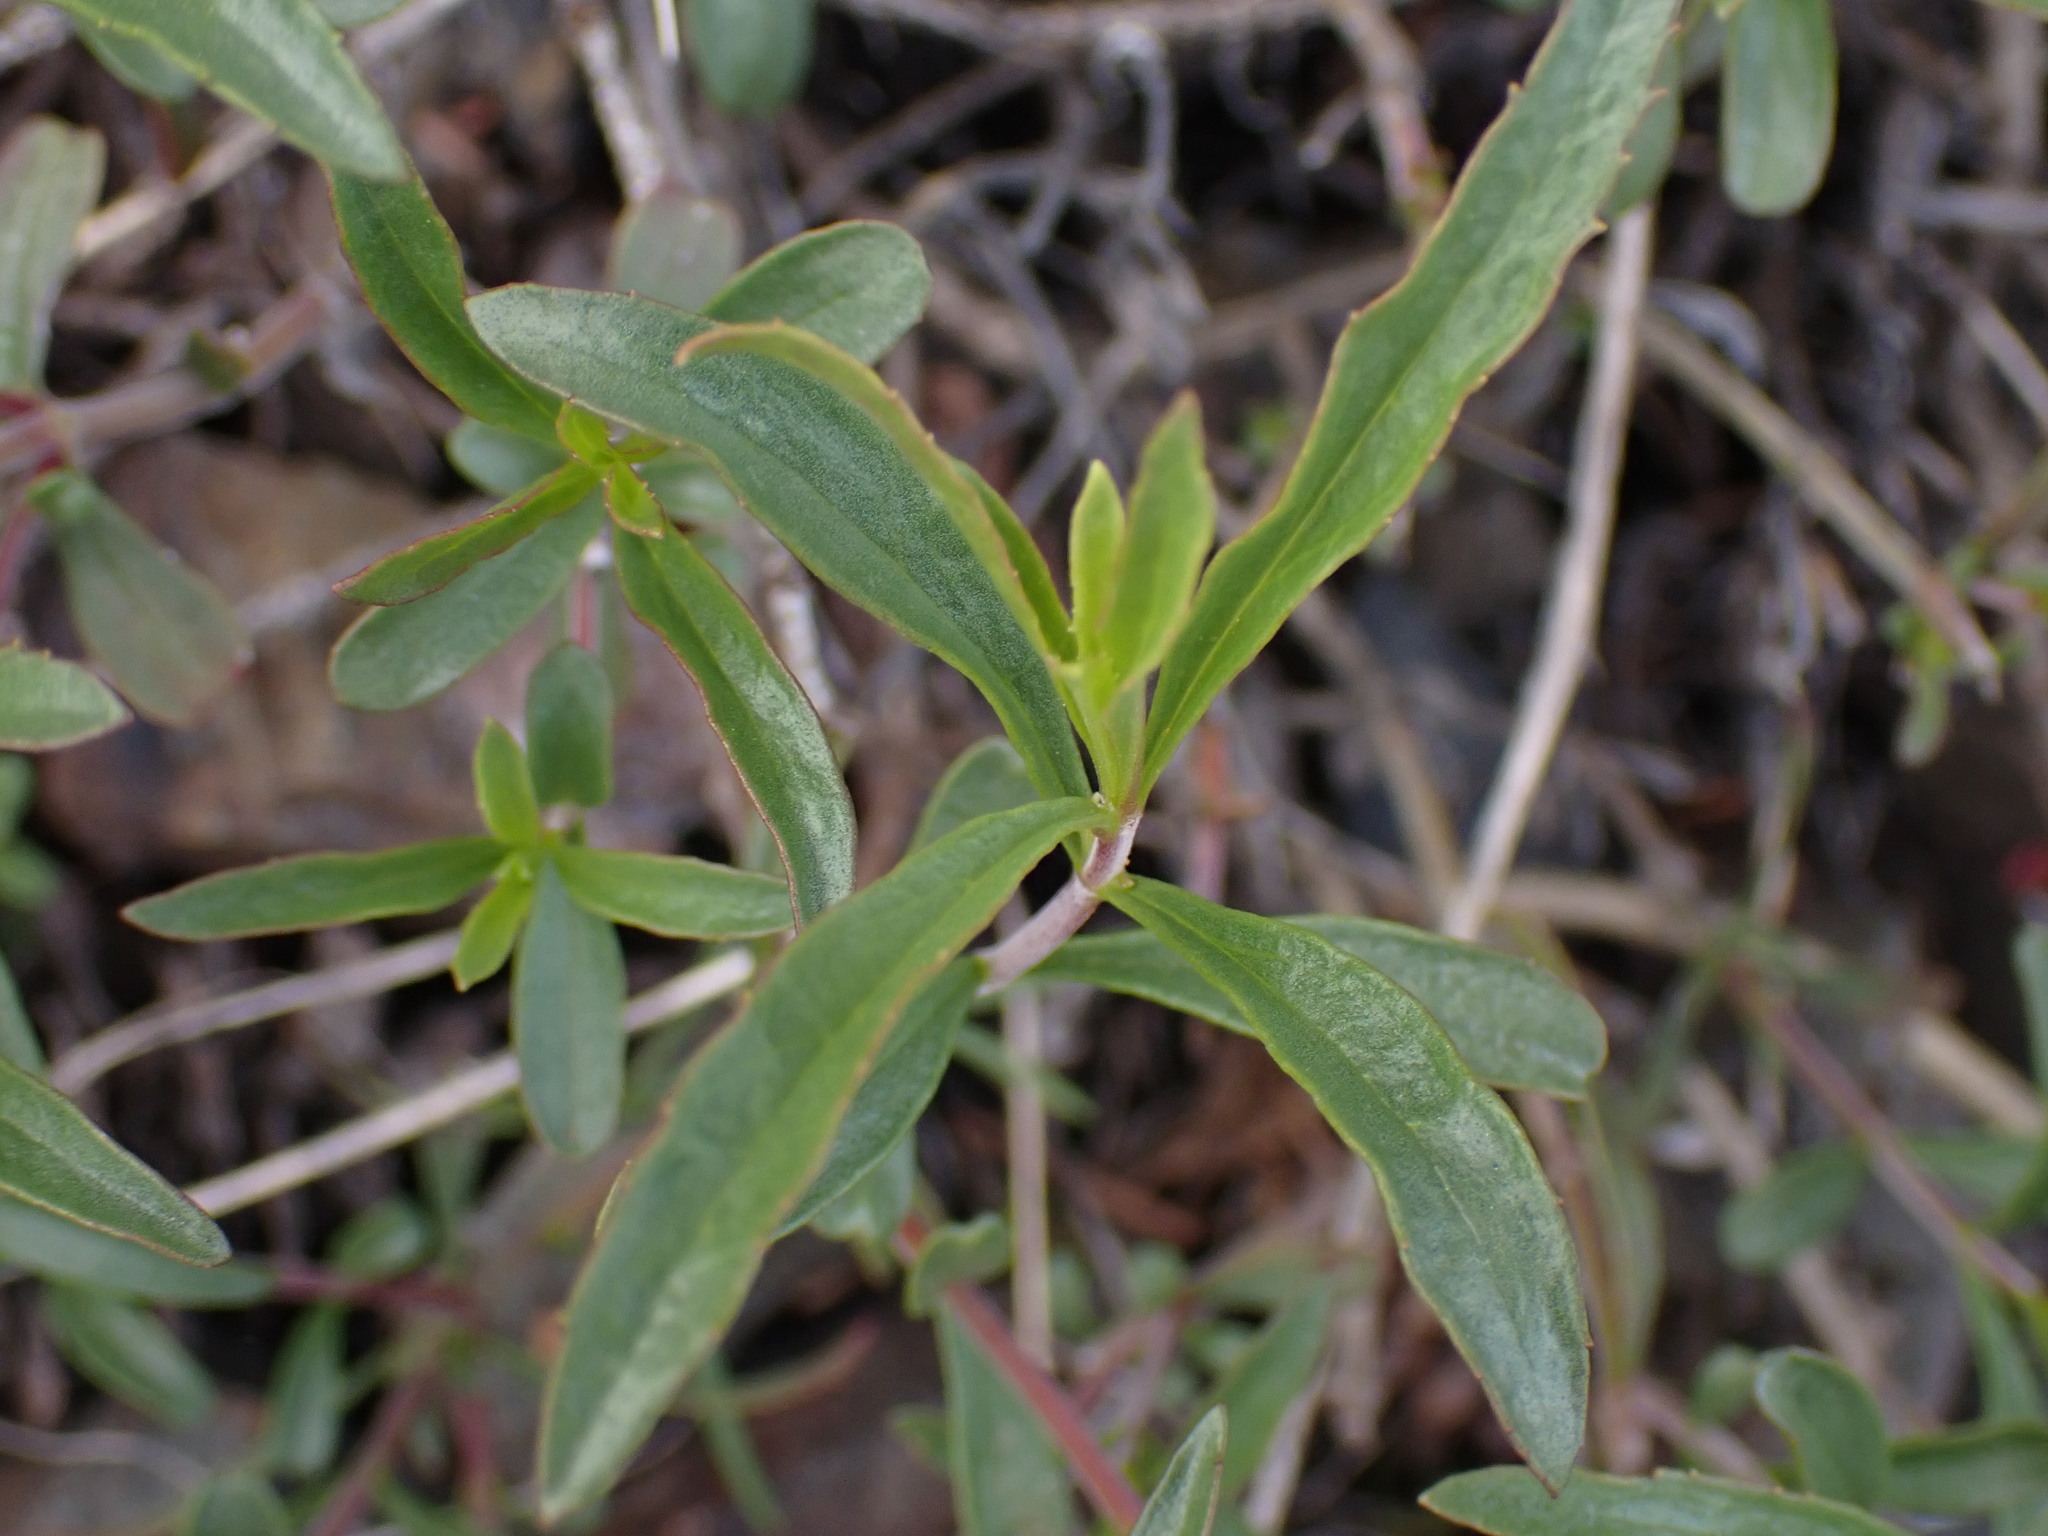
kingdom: Plantae
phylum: Tracheophyta
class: Magnoliopsida
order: Lamiales
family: Plantaginaceae
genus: Penstemon
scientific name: Penstemon fruticosus
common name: Bush penstemon
